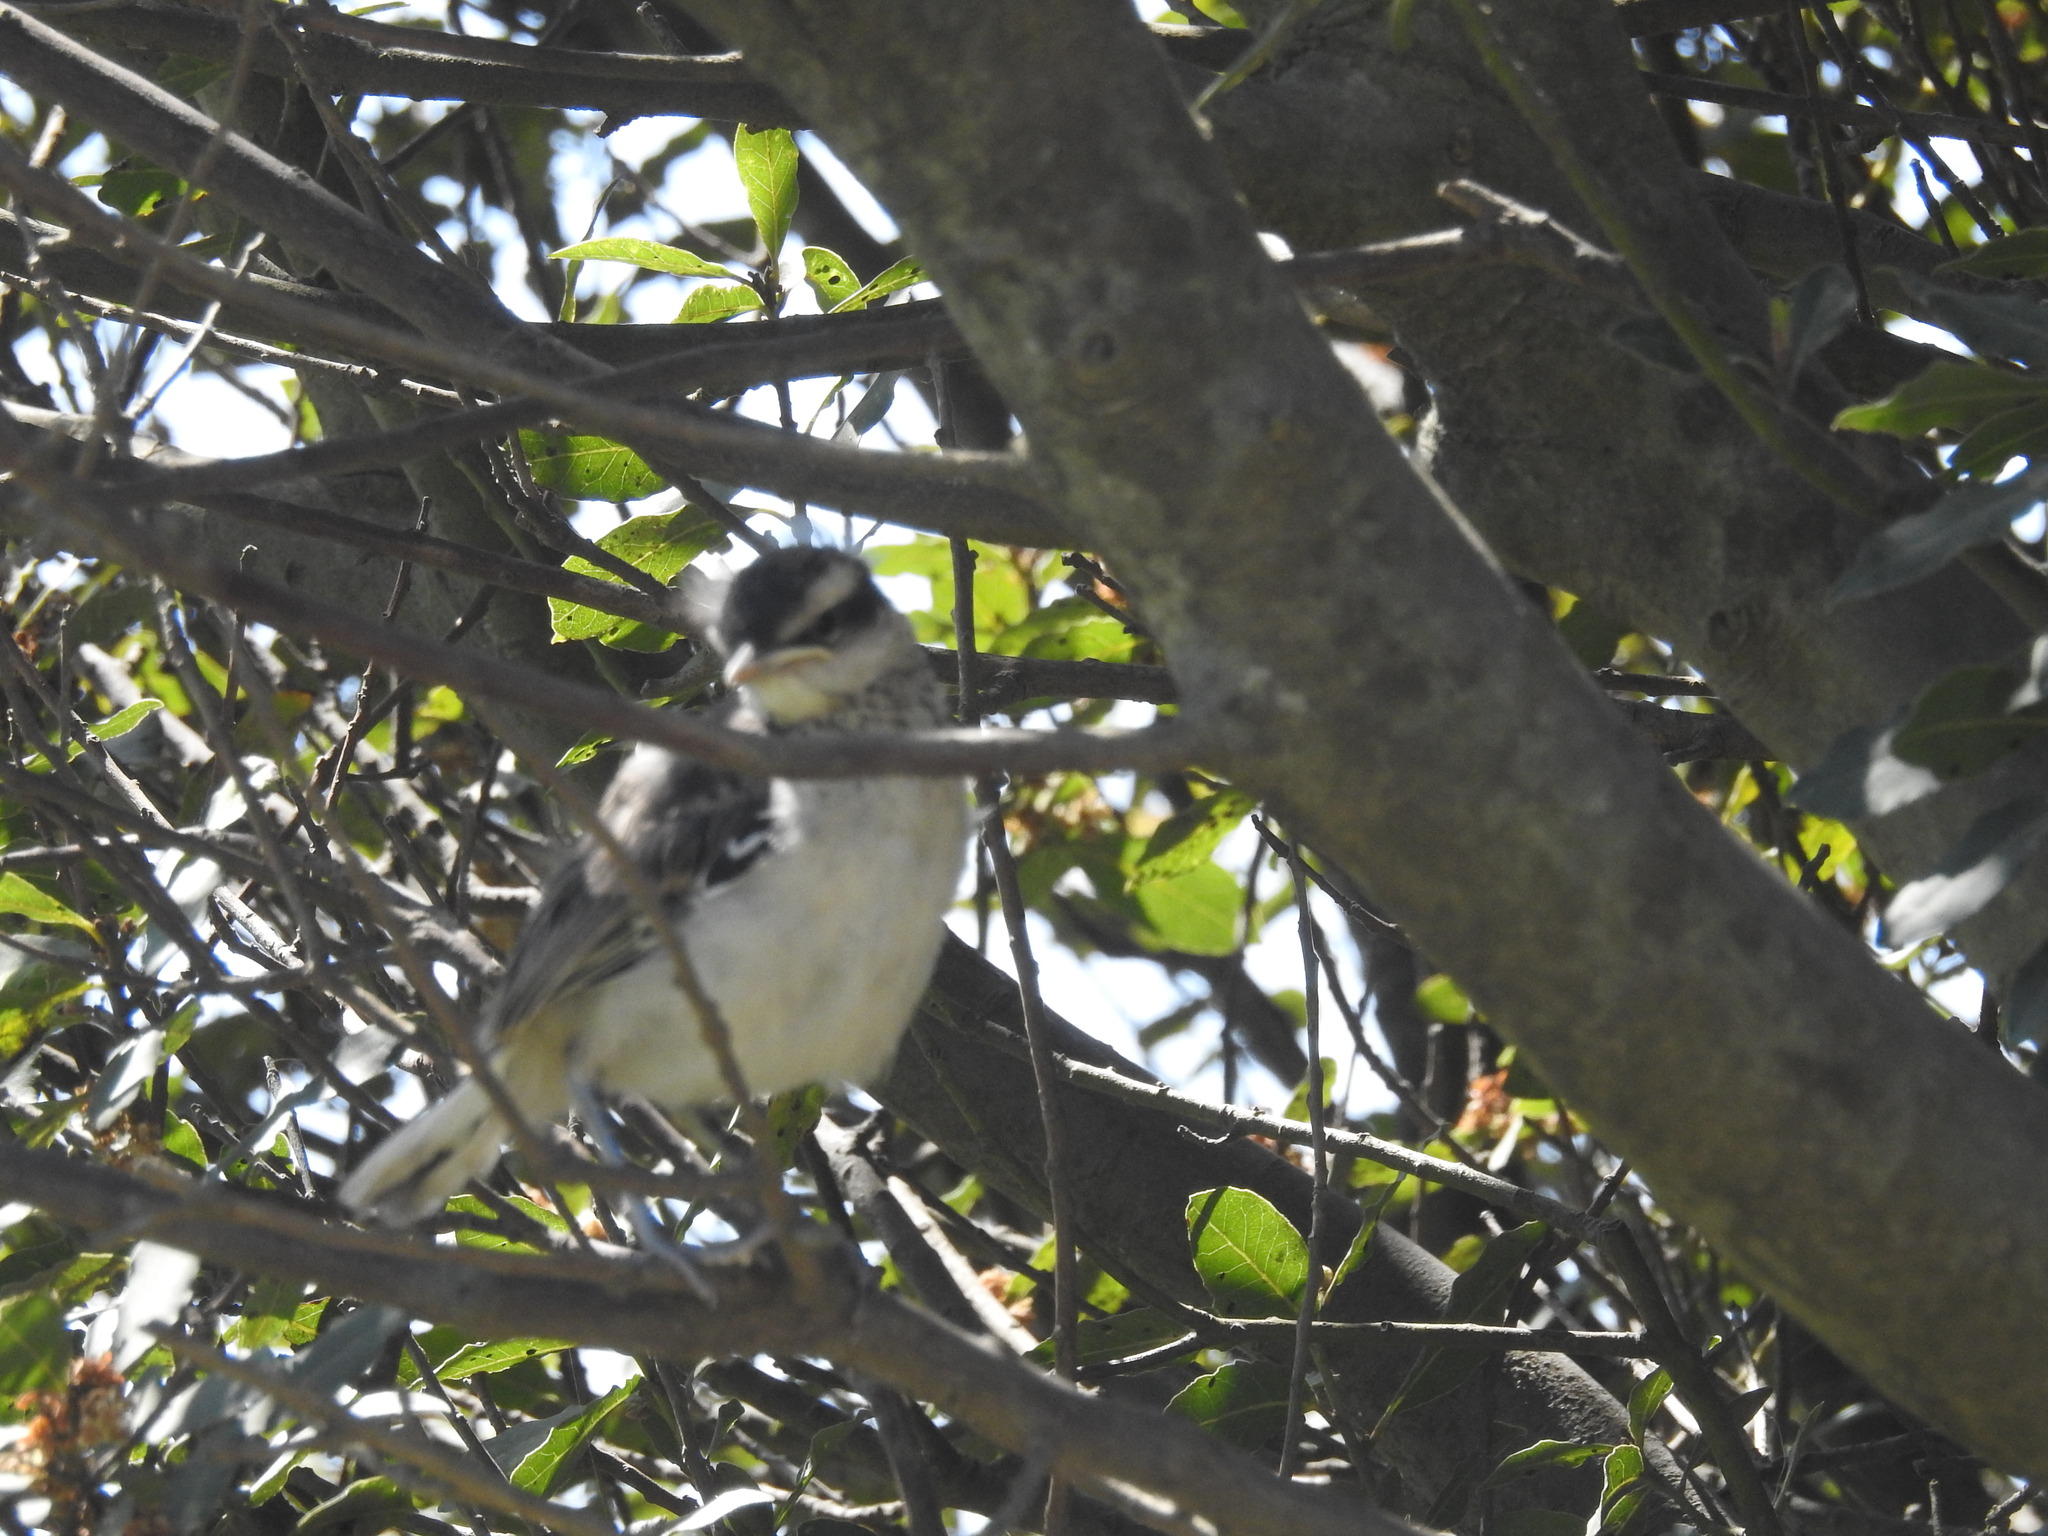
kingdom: Animalia
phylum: Chordata
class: Aves
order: Passeriformes
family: Mimidae
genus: Mimus
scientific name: Mimus saturninus
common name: Chalk-browed mockingbird
